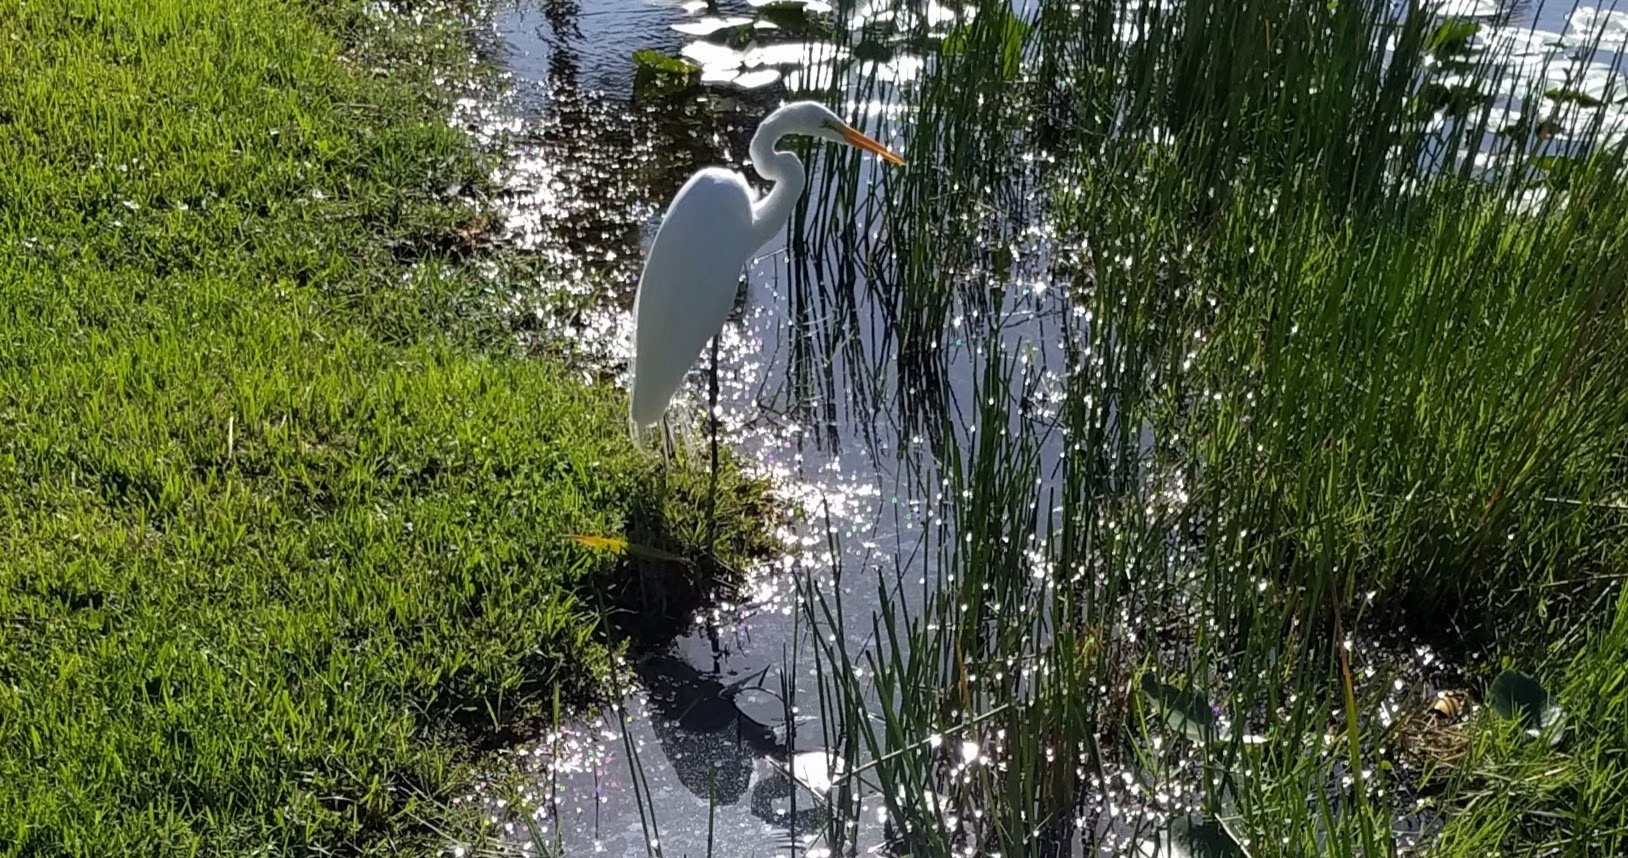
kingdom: Animalia
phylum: Chordata
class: Aves
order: Pelecaniformes
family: Ardeidae
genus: Ardea
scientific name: Ardea alba
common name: Great egret
